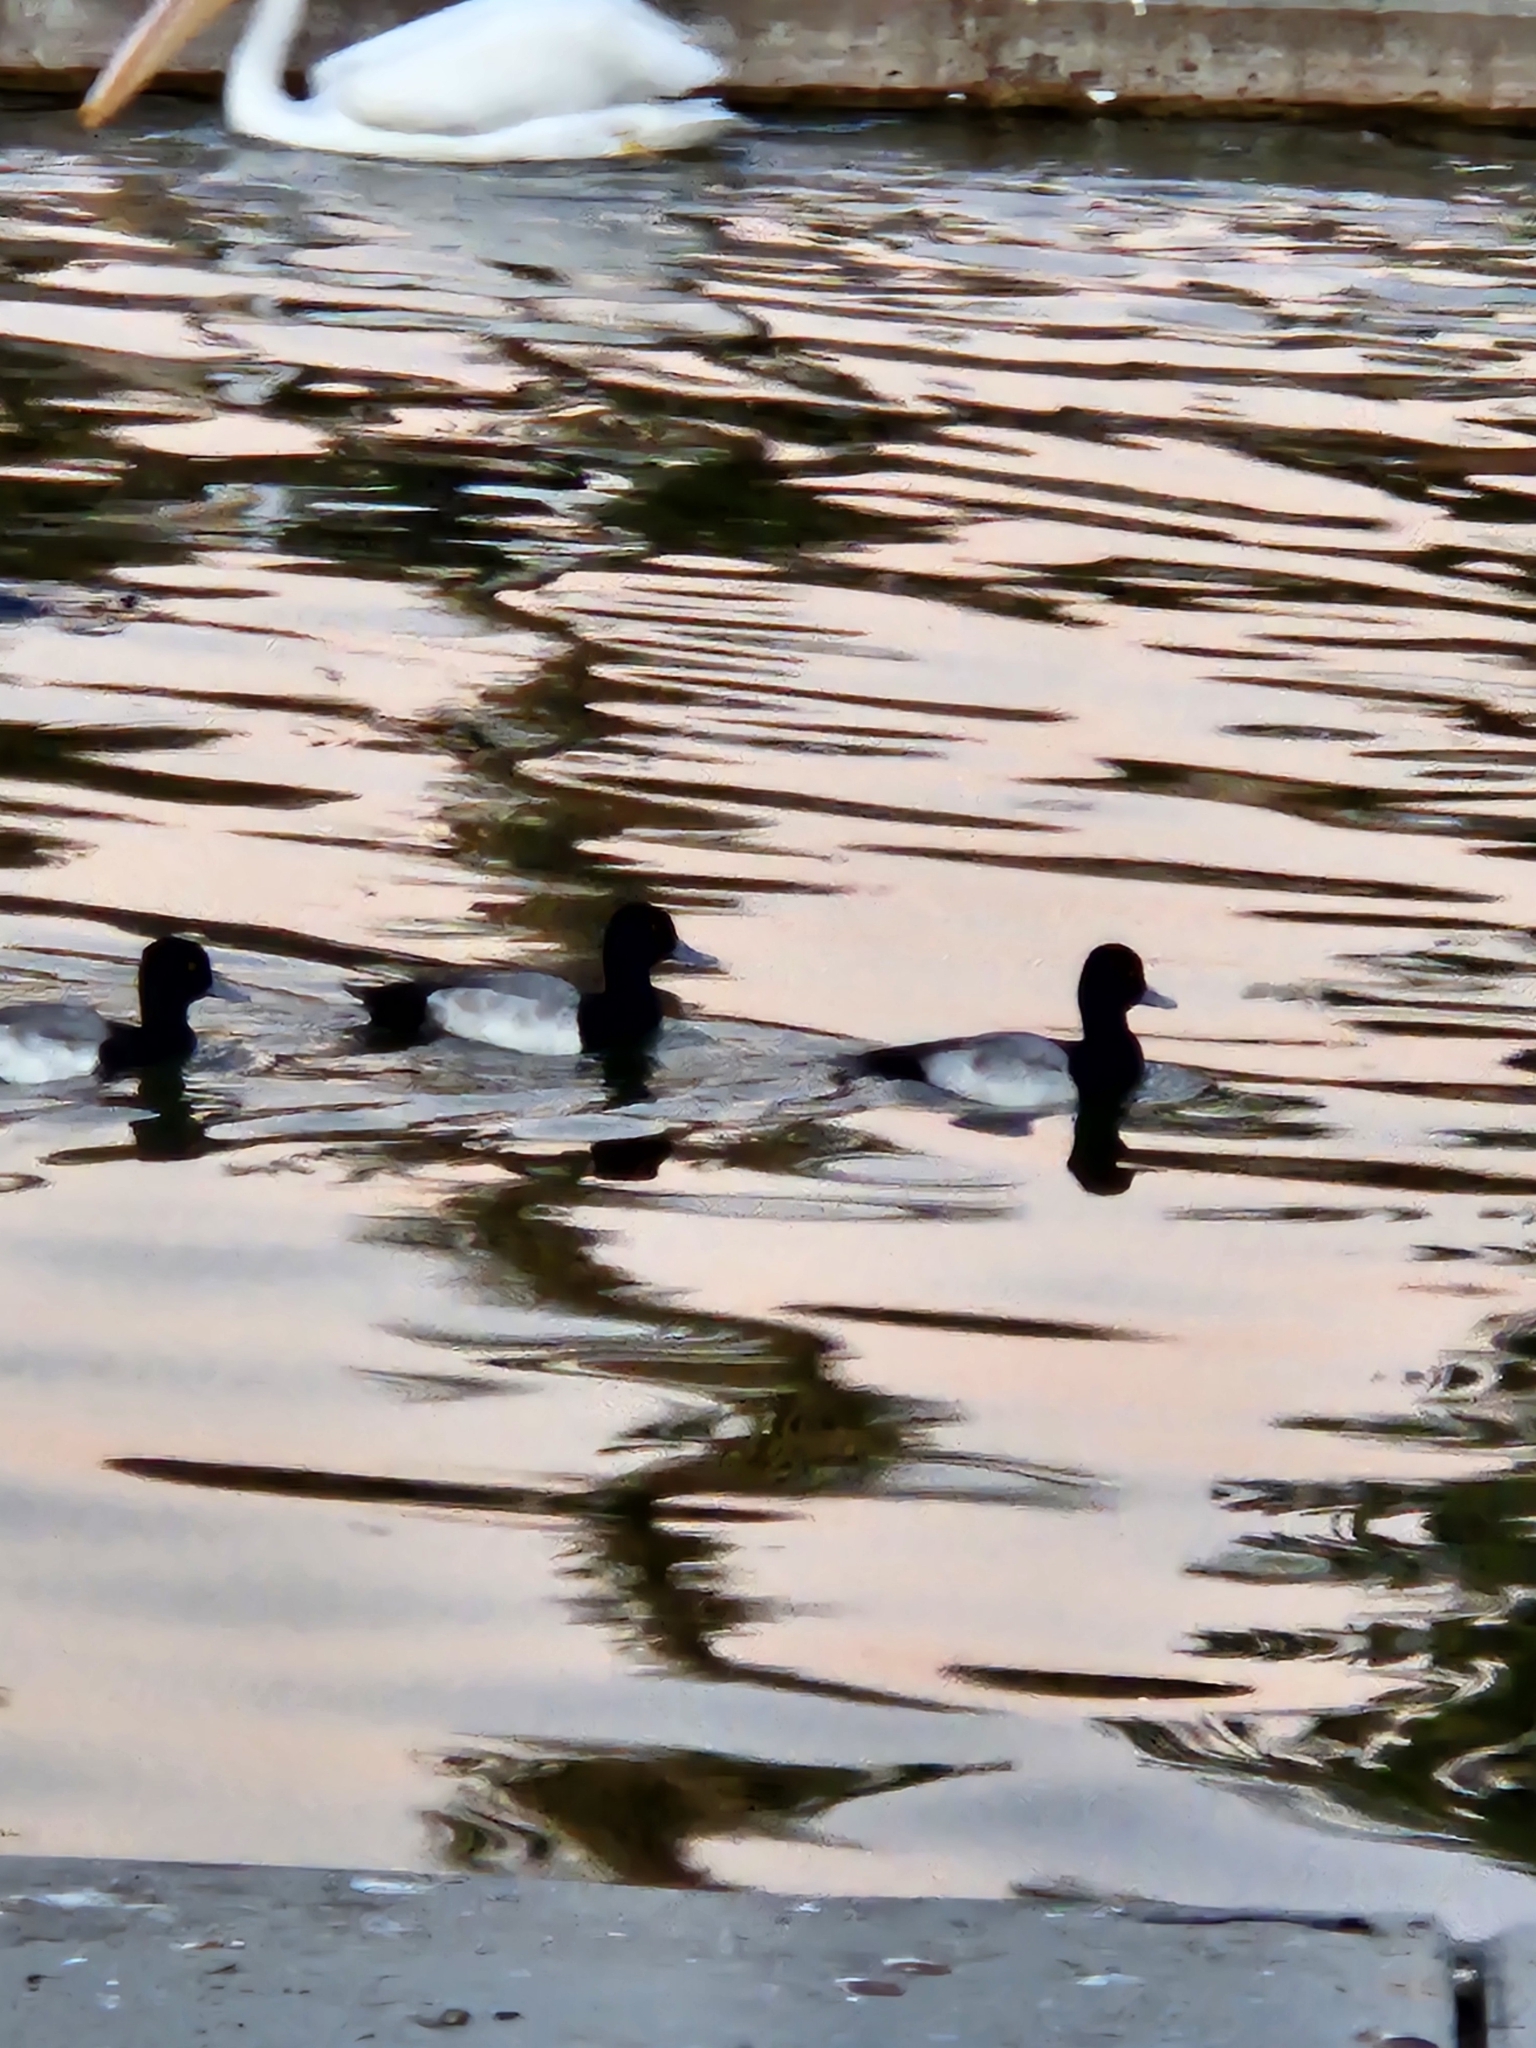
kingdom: Animalia
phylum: Chordata
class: Aves
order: Anseriformes
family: Anatidae
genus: Aythya
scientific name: Aythya
